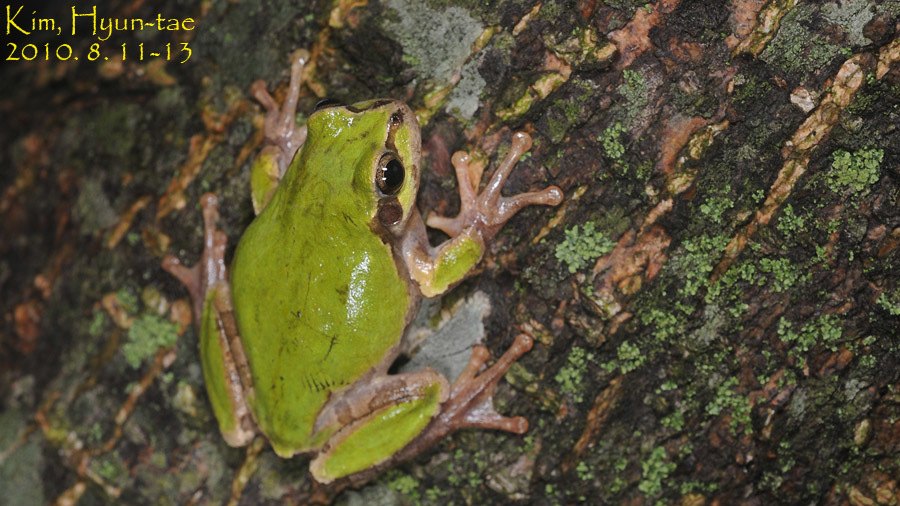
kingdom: Animalia
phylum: Chordata
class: Amphibia
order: Anura
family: Hylidae
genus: Dryophytes
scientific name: Dryophytes japonicus
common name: Japanese treefrog
